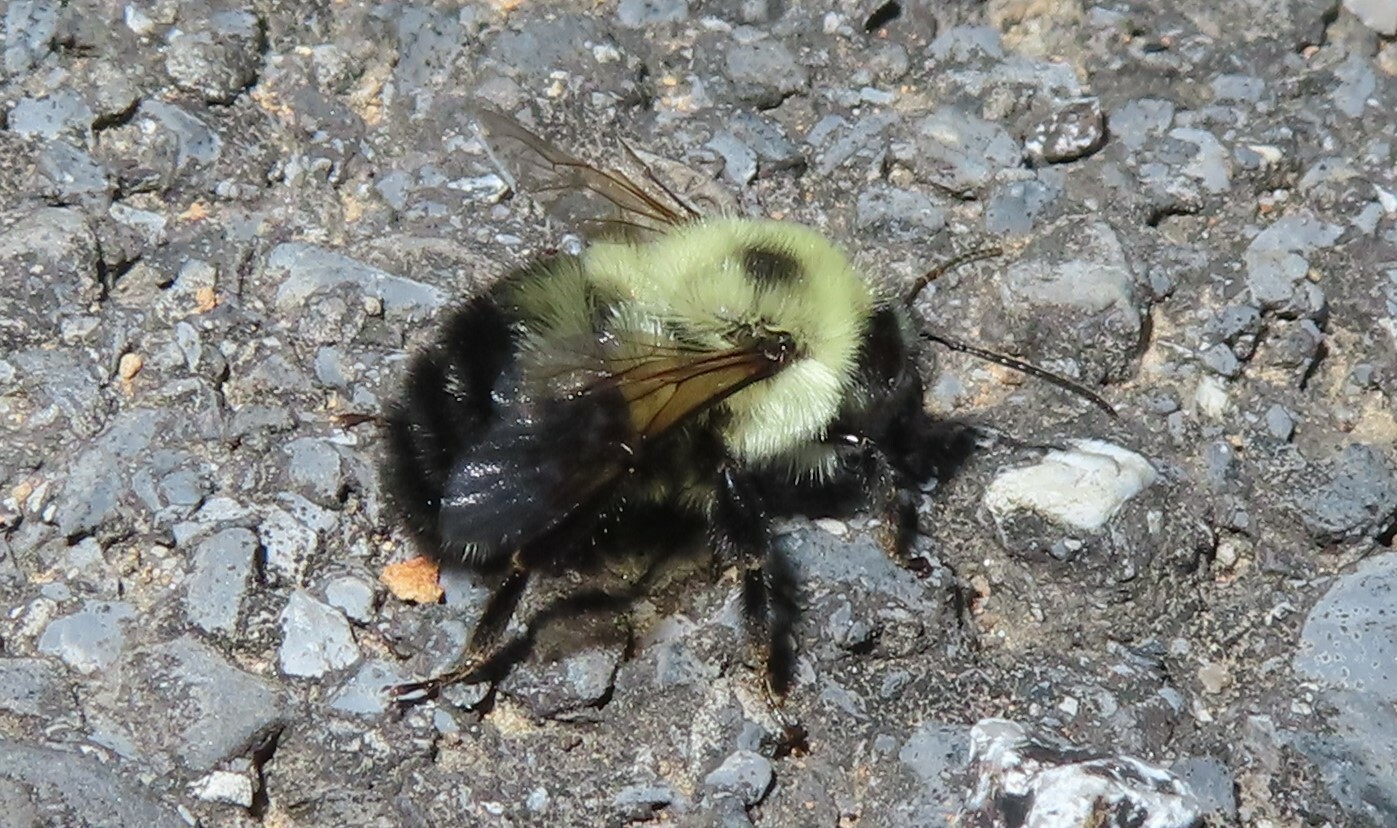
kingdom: Animalia
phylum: Arthropoda
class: Insecta
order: Hymenoptera
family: Apidae
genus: Bombus
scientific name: Bombus bimaculatus
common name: Two-spotted bumble bee
